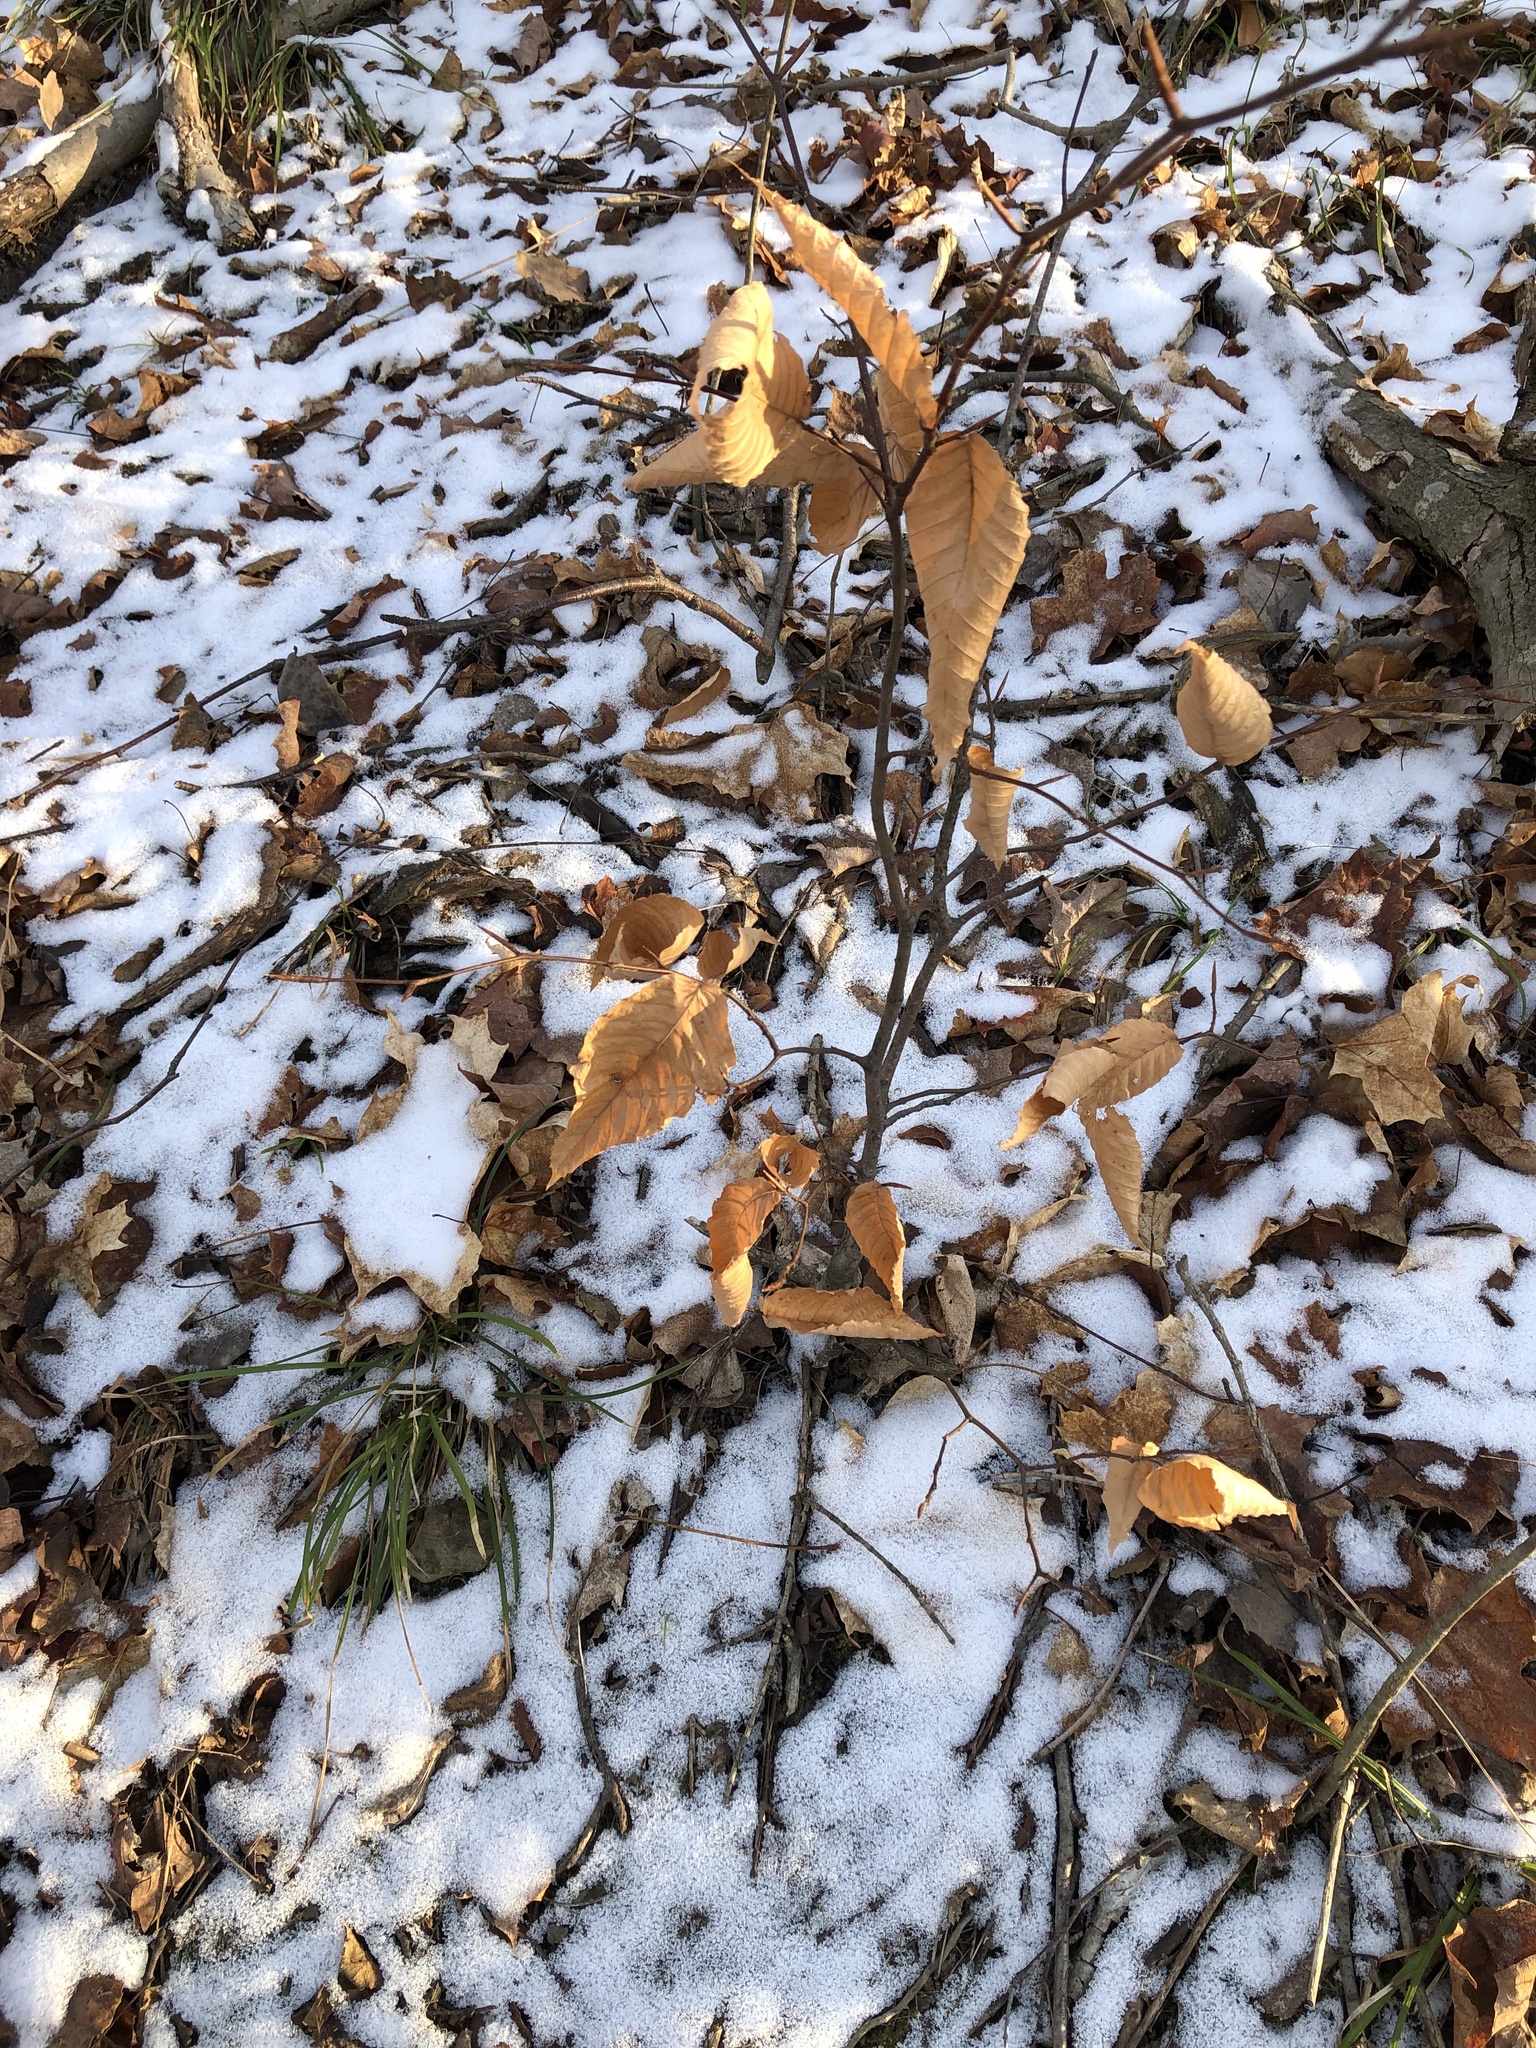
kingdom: Plantae
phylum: Tracheophyta
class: Magnoliopsida
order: Fagales
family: Fagaceae
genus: Fagus
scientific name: Fagus grandifolia
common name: American beech
